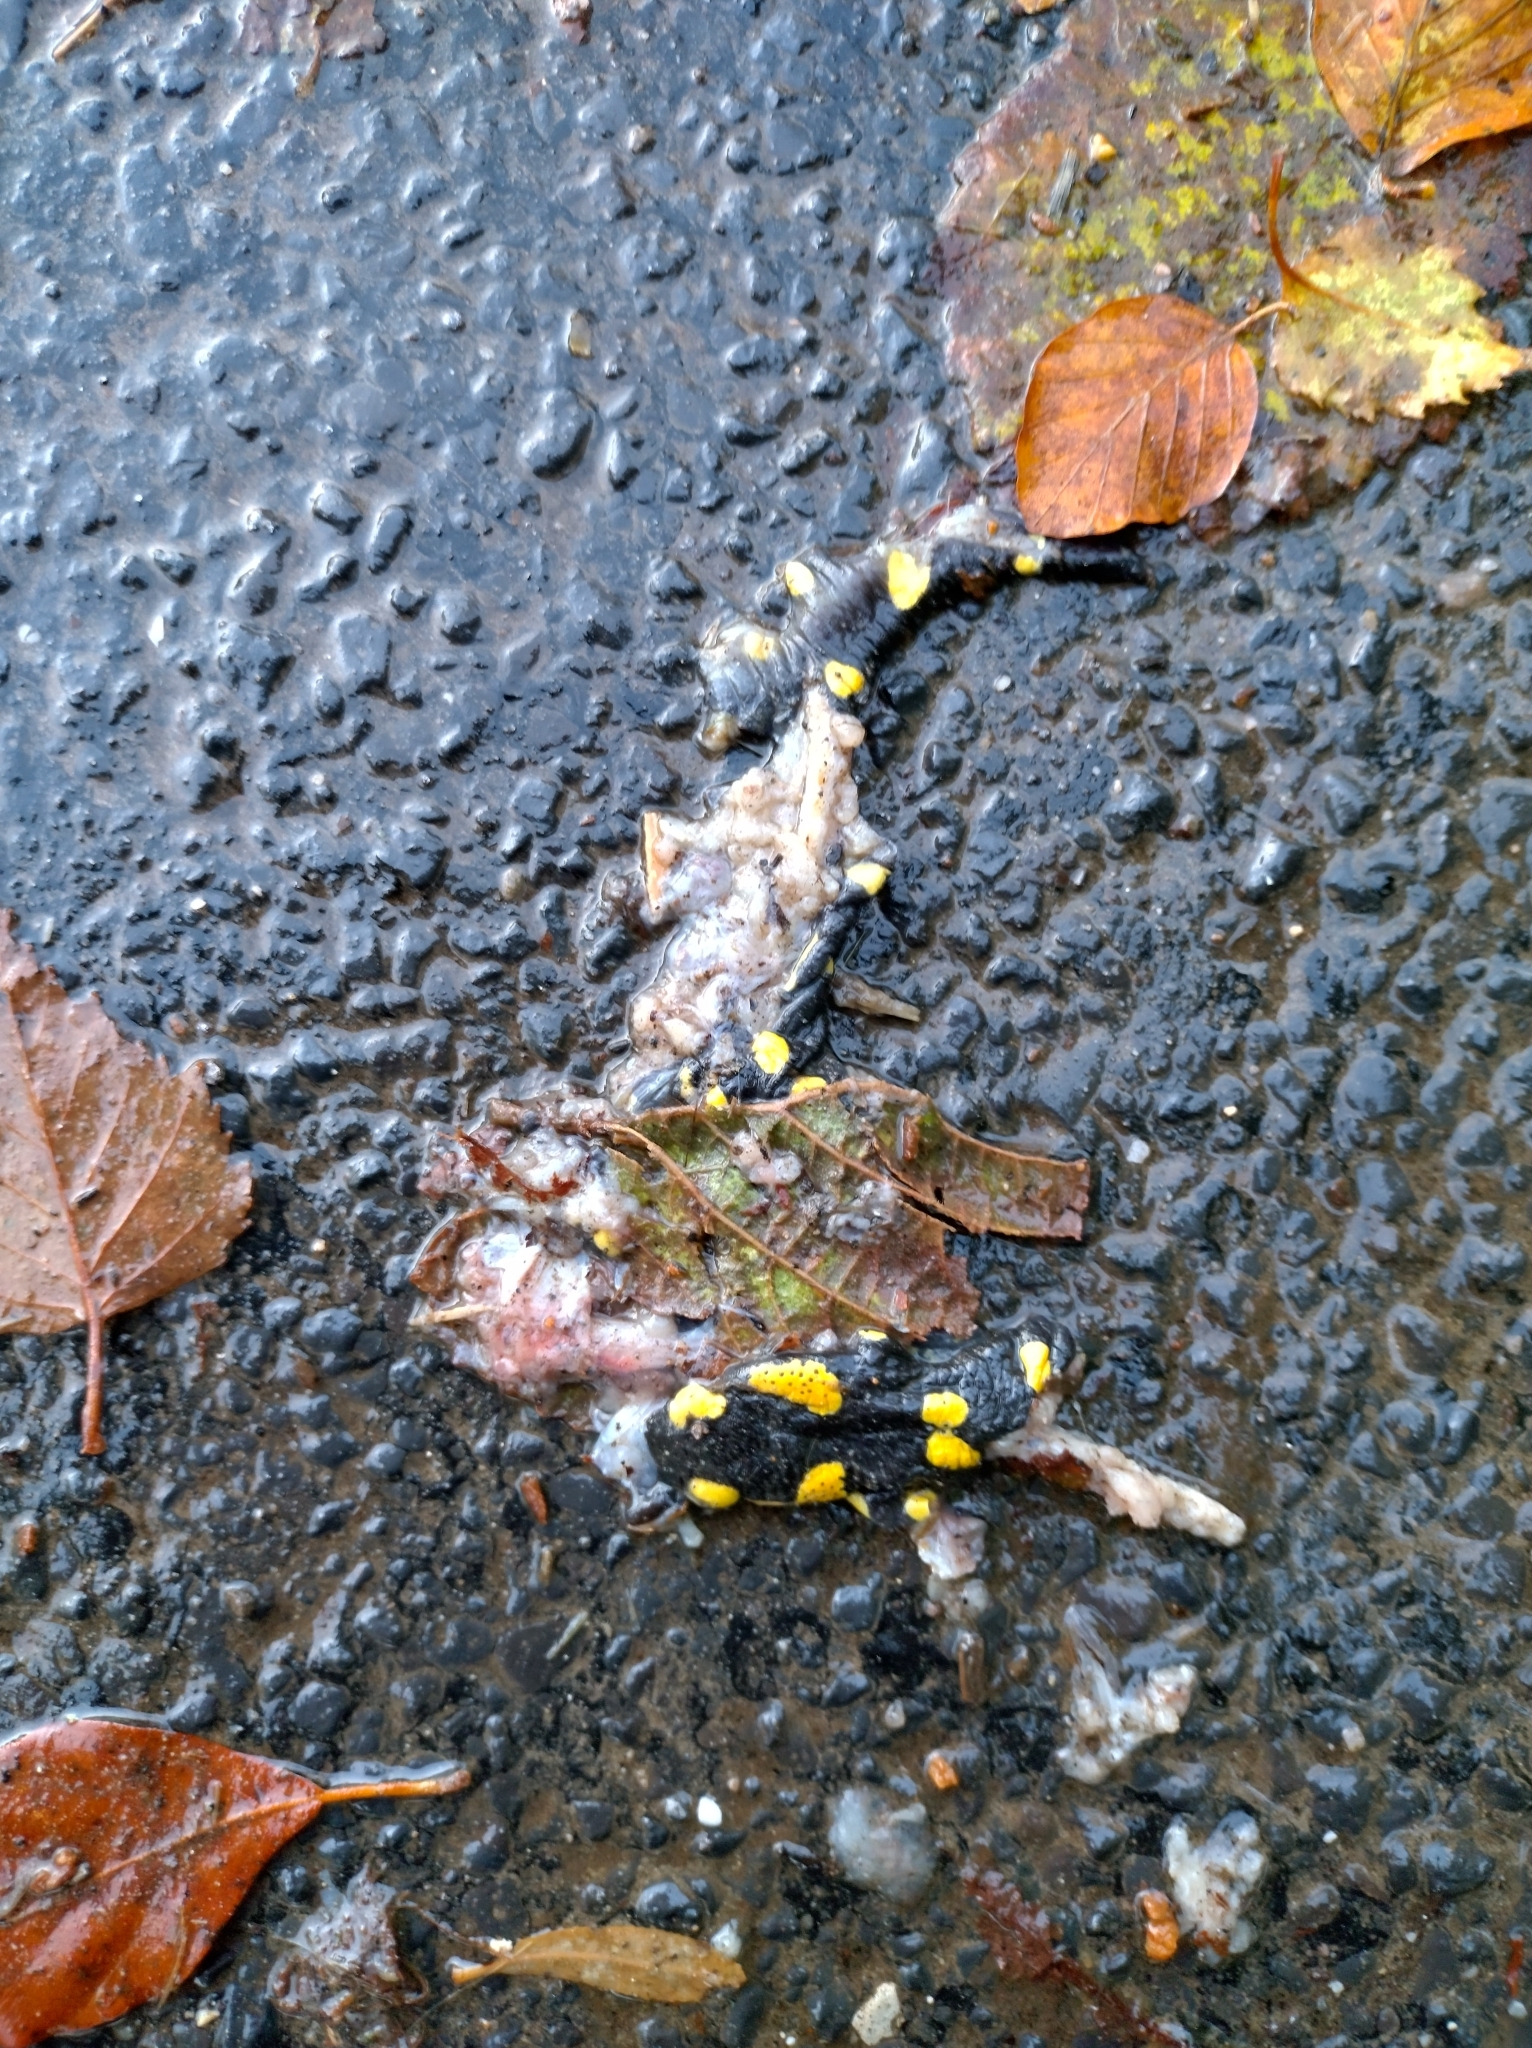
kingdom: Animalia
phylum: Chordata
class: Amphibia
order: Caudata
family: Salamandridae
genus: Salamandra
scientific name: Salamandra salamandra
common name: Fire salamander
